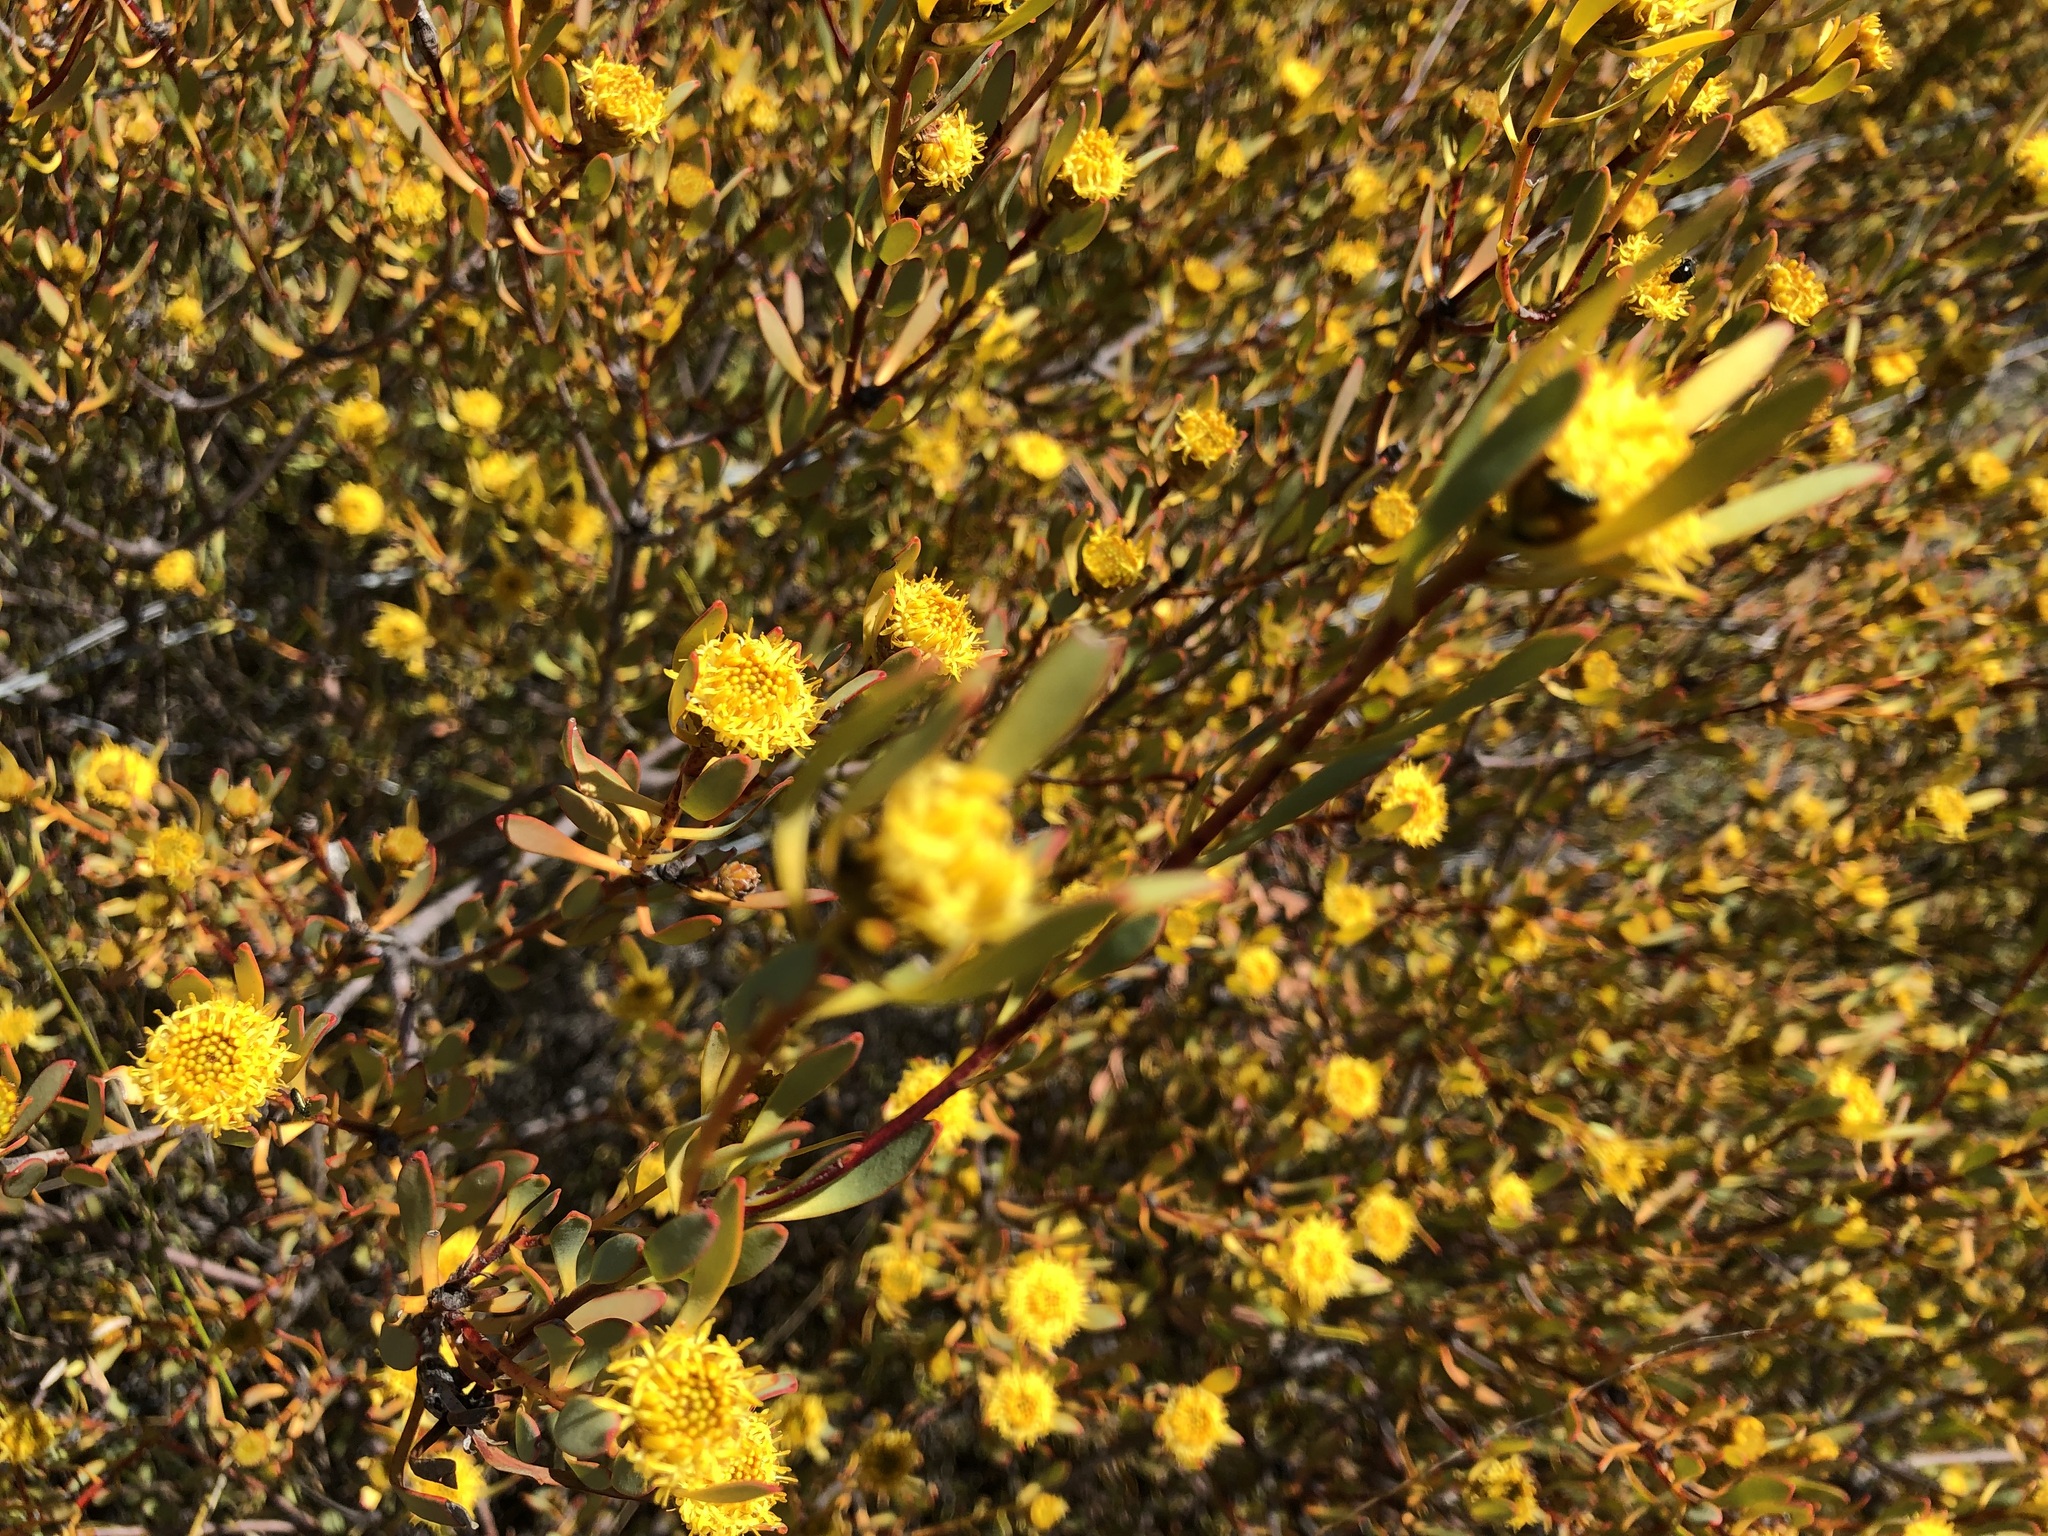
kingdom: Plantae
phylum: Tracheophyta
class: Magnoliopsida
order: Proteales
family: Proteaceae
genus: Leucadendron
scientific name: Leucadendron glaberrimum
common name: Common oily conebush
